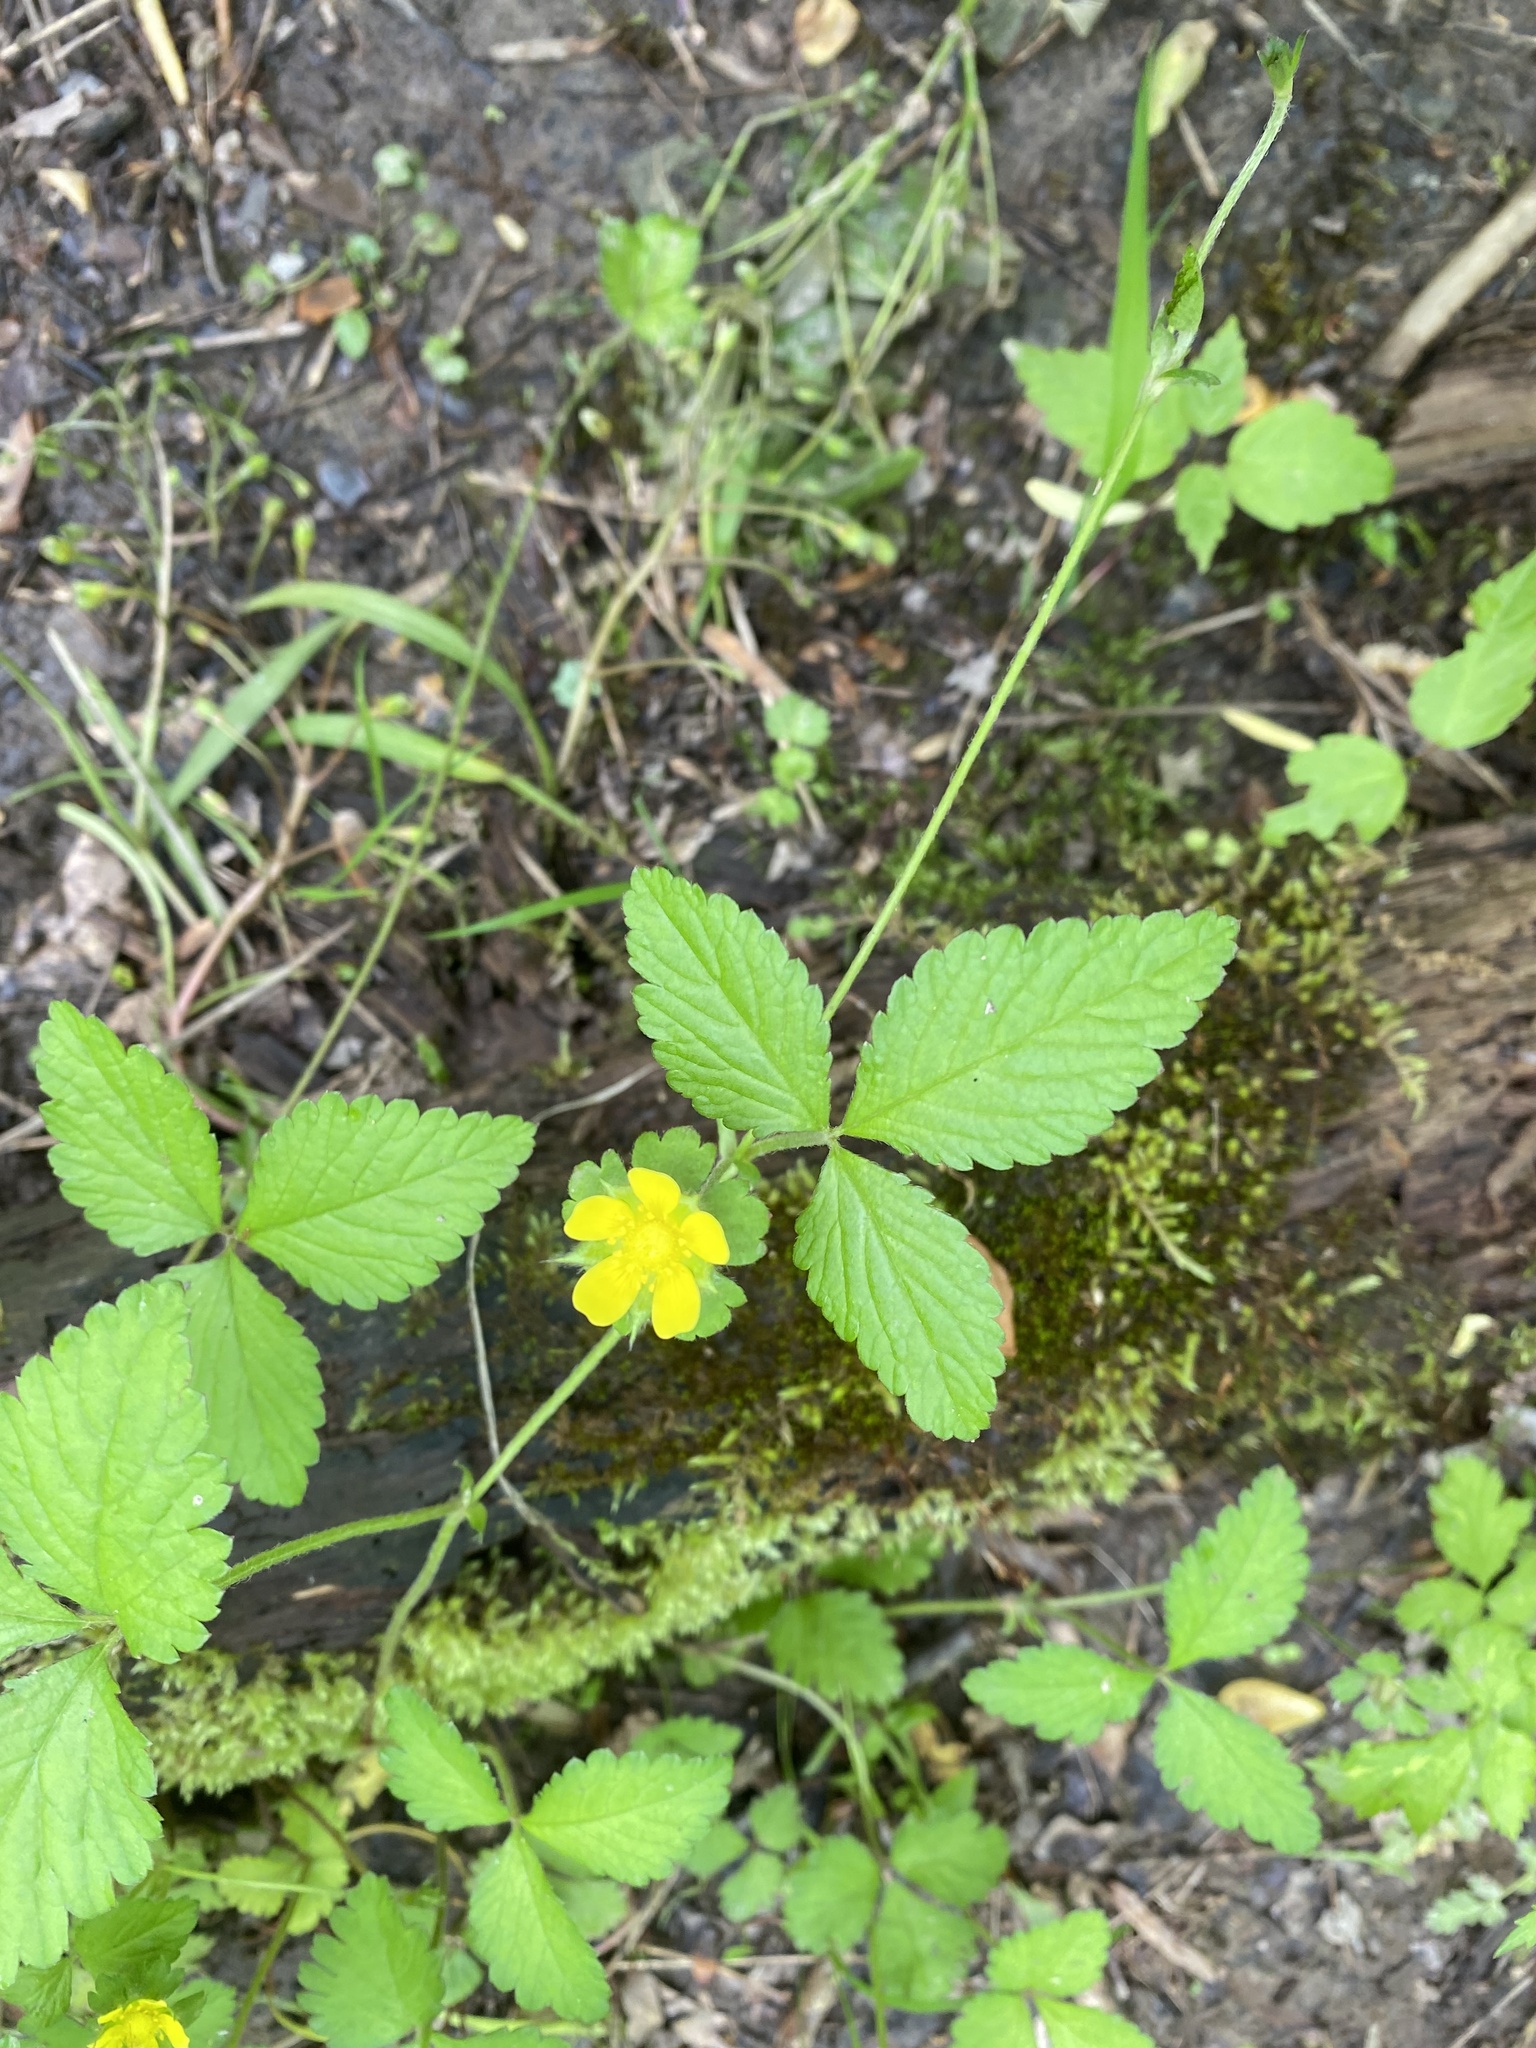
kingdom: Plantae
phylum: Tracheophyta
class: Magnoliopsida
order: Rosales
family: Rosaceae
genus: Potentilla
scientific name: Potentilla indica
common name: Yellow-flowered strawberry
